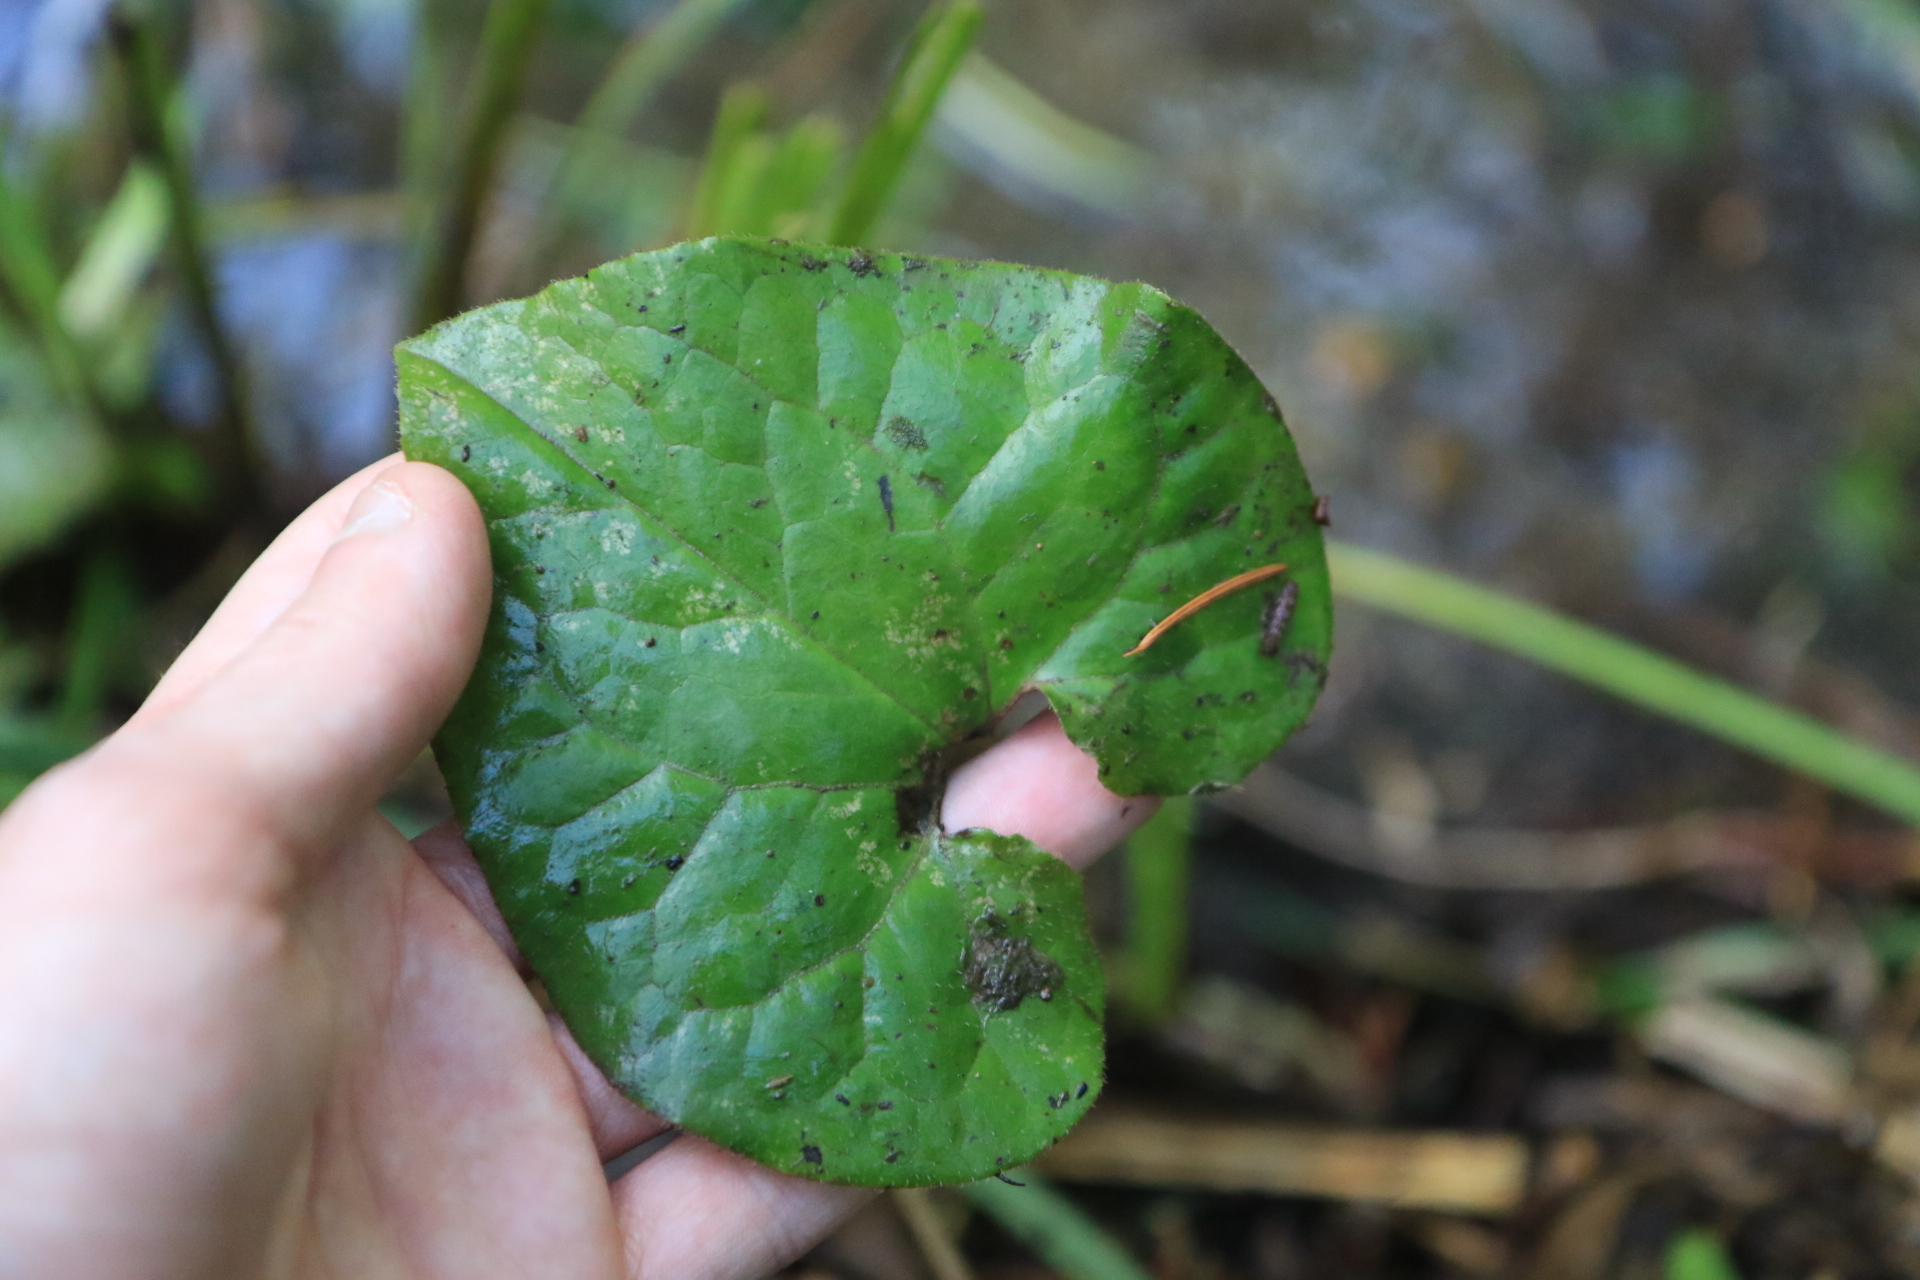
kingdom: Plantae
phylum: Tracheophyta
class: Magnoliopsida
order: Piperales
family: Aristolochiaceae
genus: Asarum
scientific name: Asarum caudatum
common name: Wild ginger
